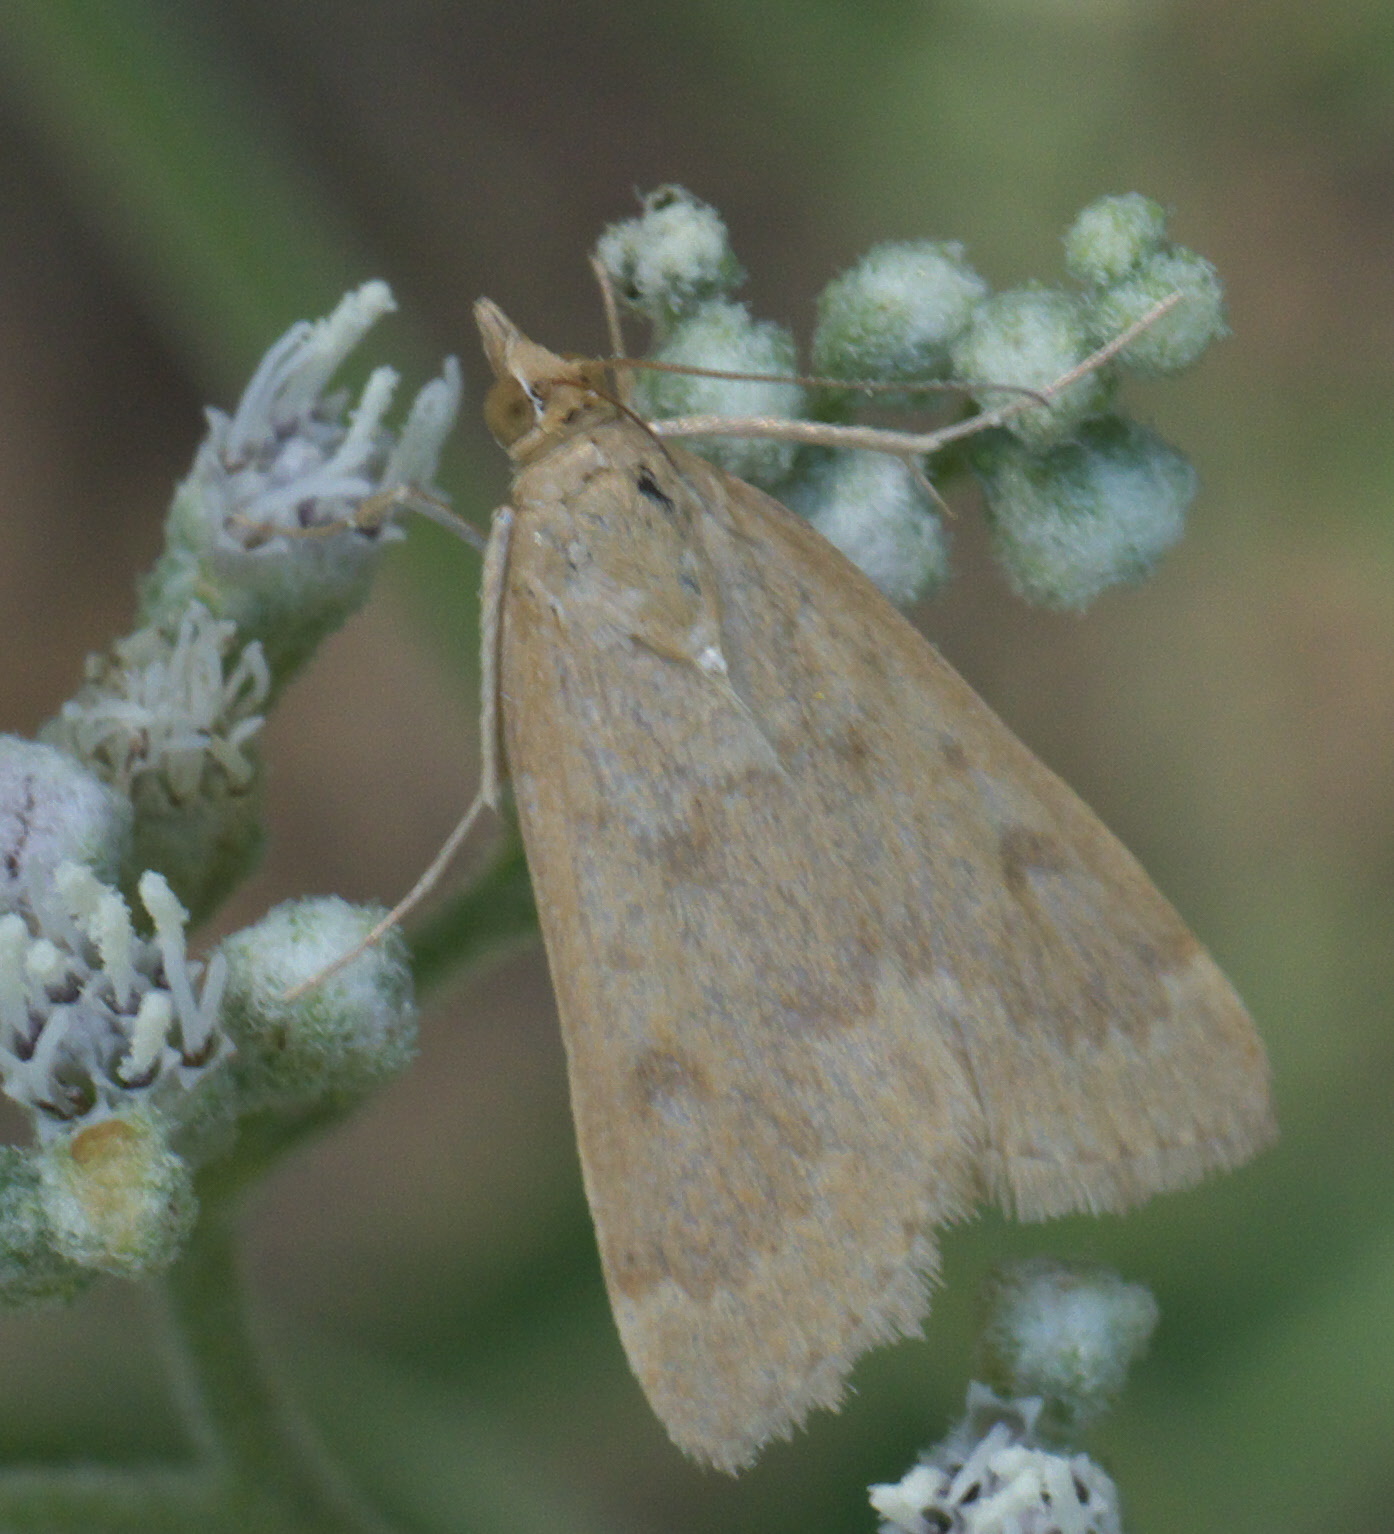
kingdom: Animalia
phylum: Arthropoda
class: Insecta
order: Lepidoptera
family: Crambidae
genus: Achyra
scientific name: Achyra rantalis
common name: Garden webworm
